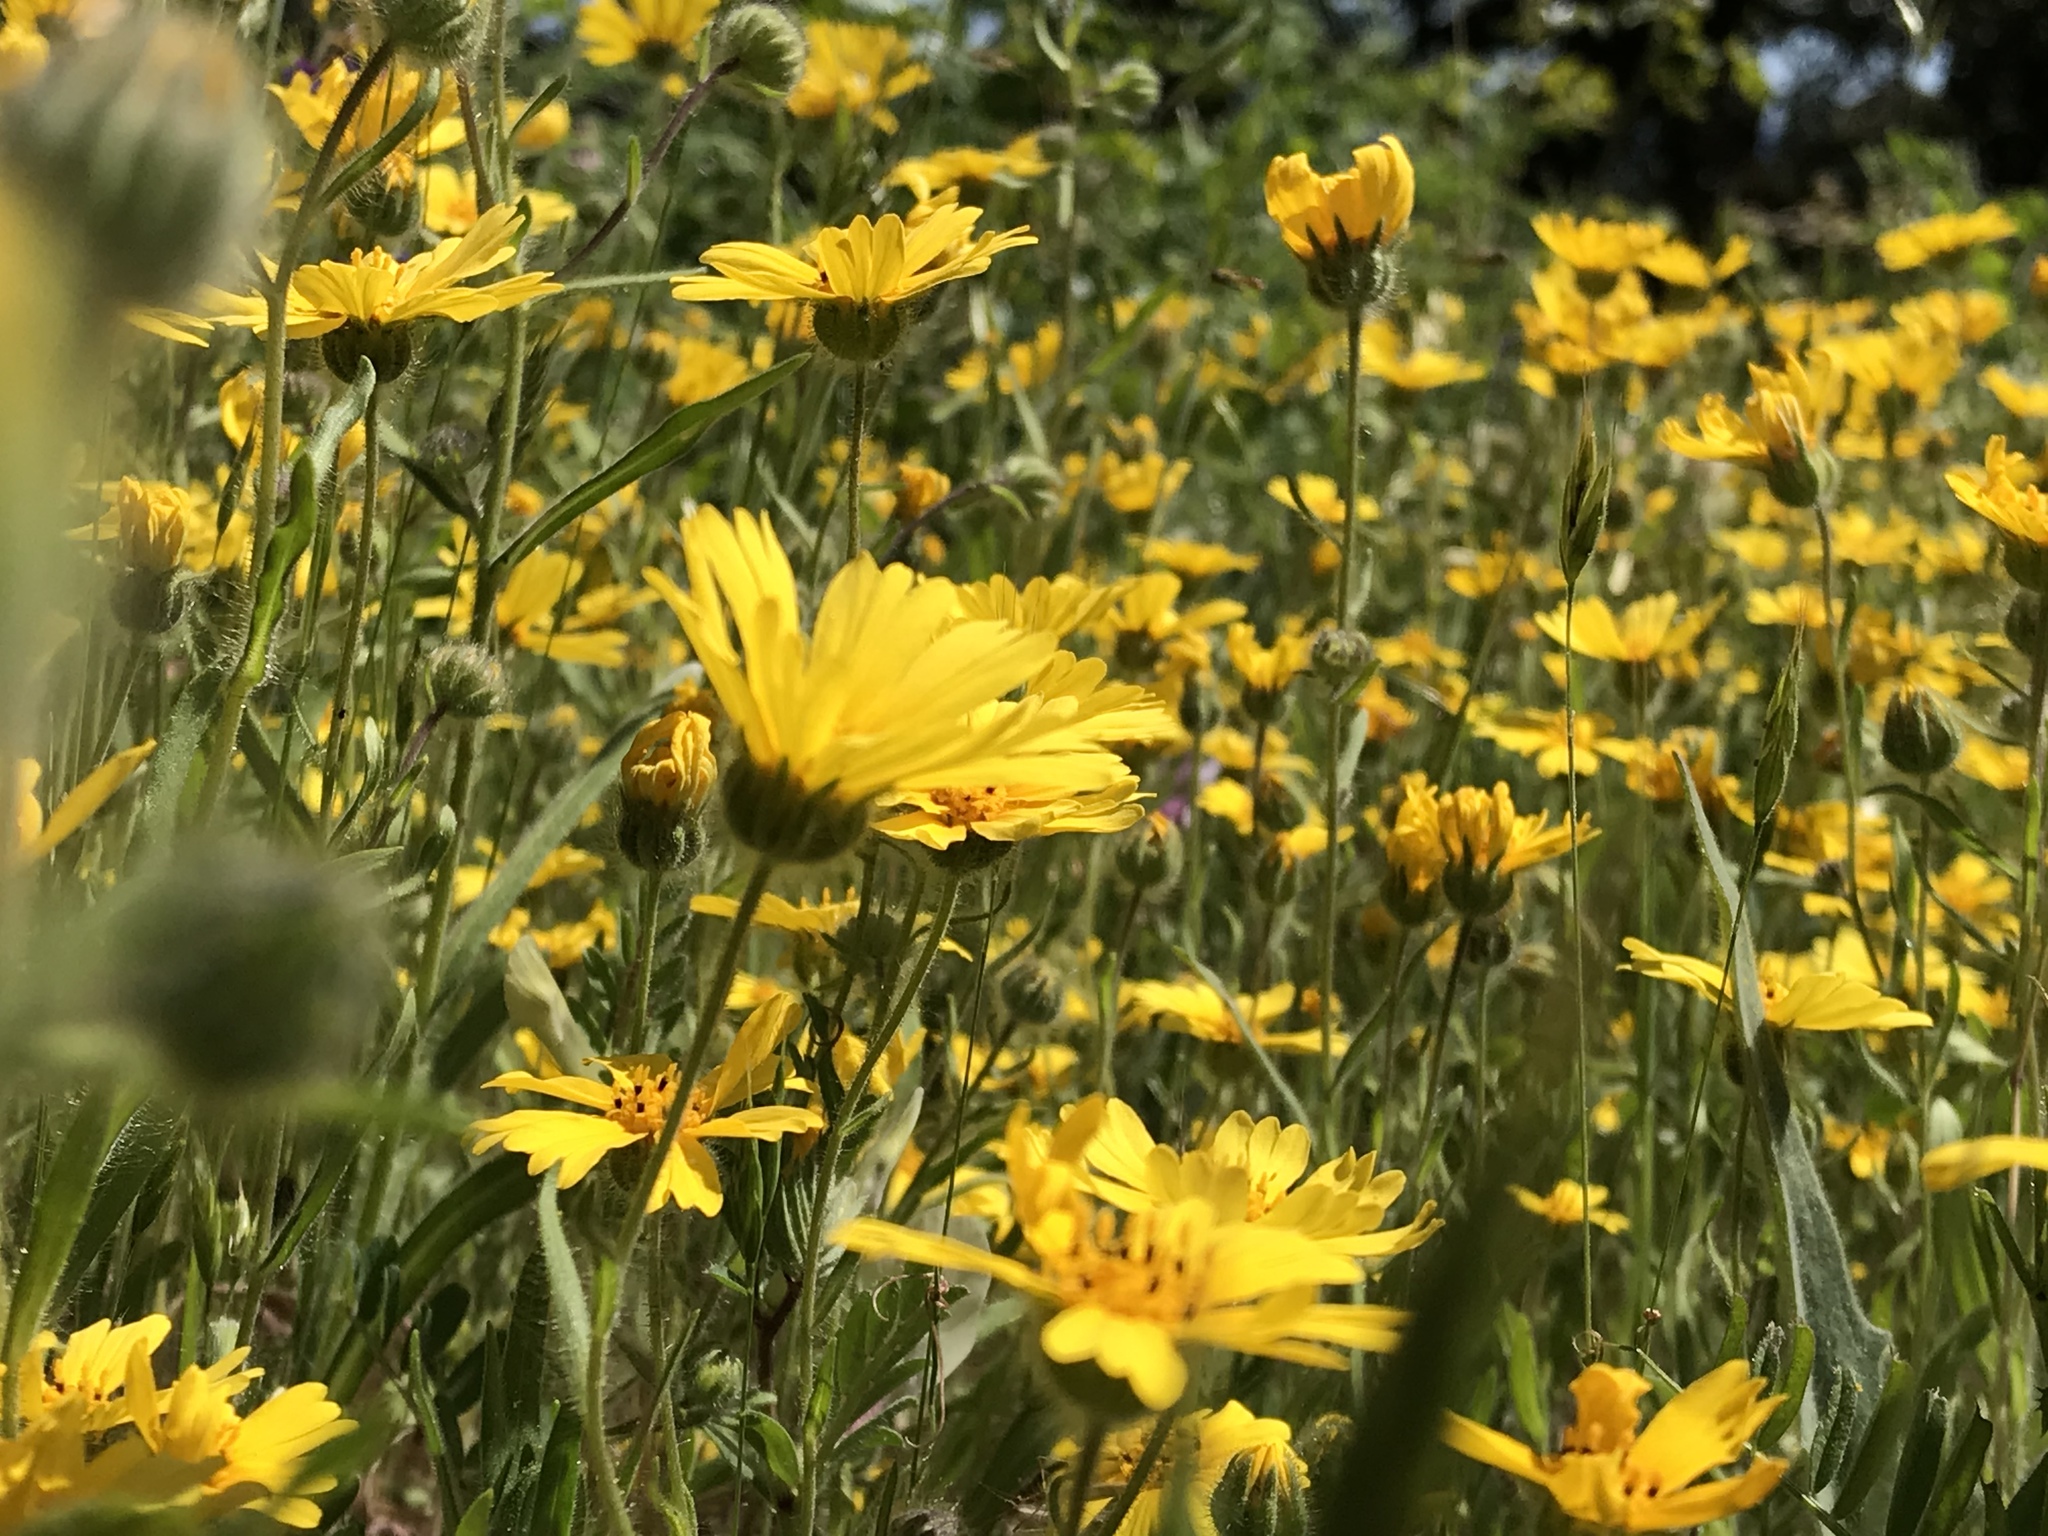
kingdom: Plantae
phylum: Tracheophyta
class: Magnoliopsida
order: Asterales
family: Asteraceae
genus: Madia
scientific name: Madia elegans
